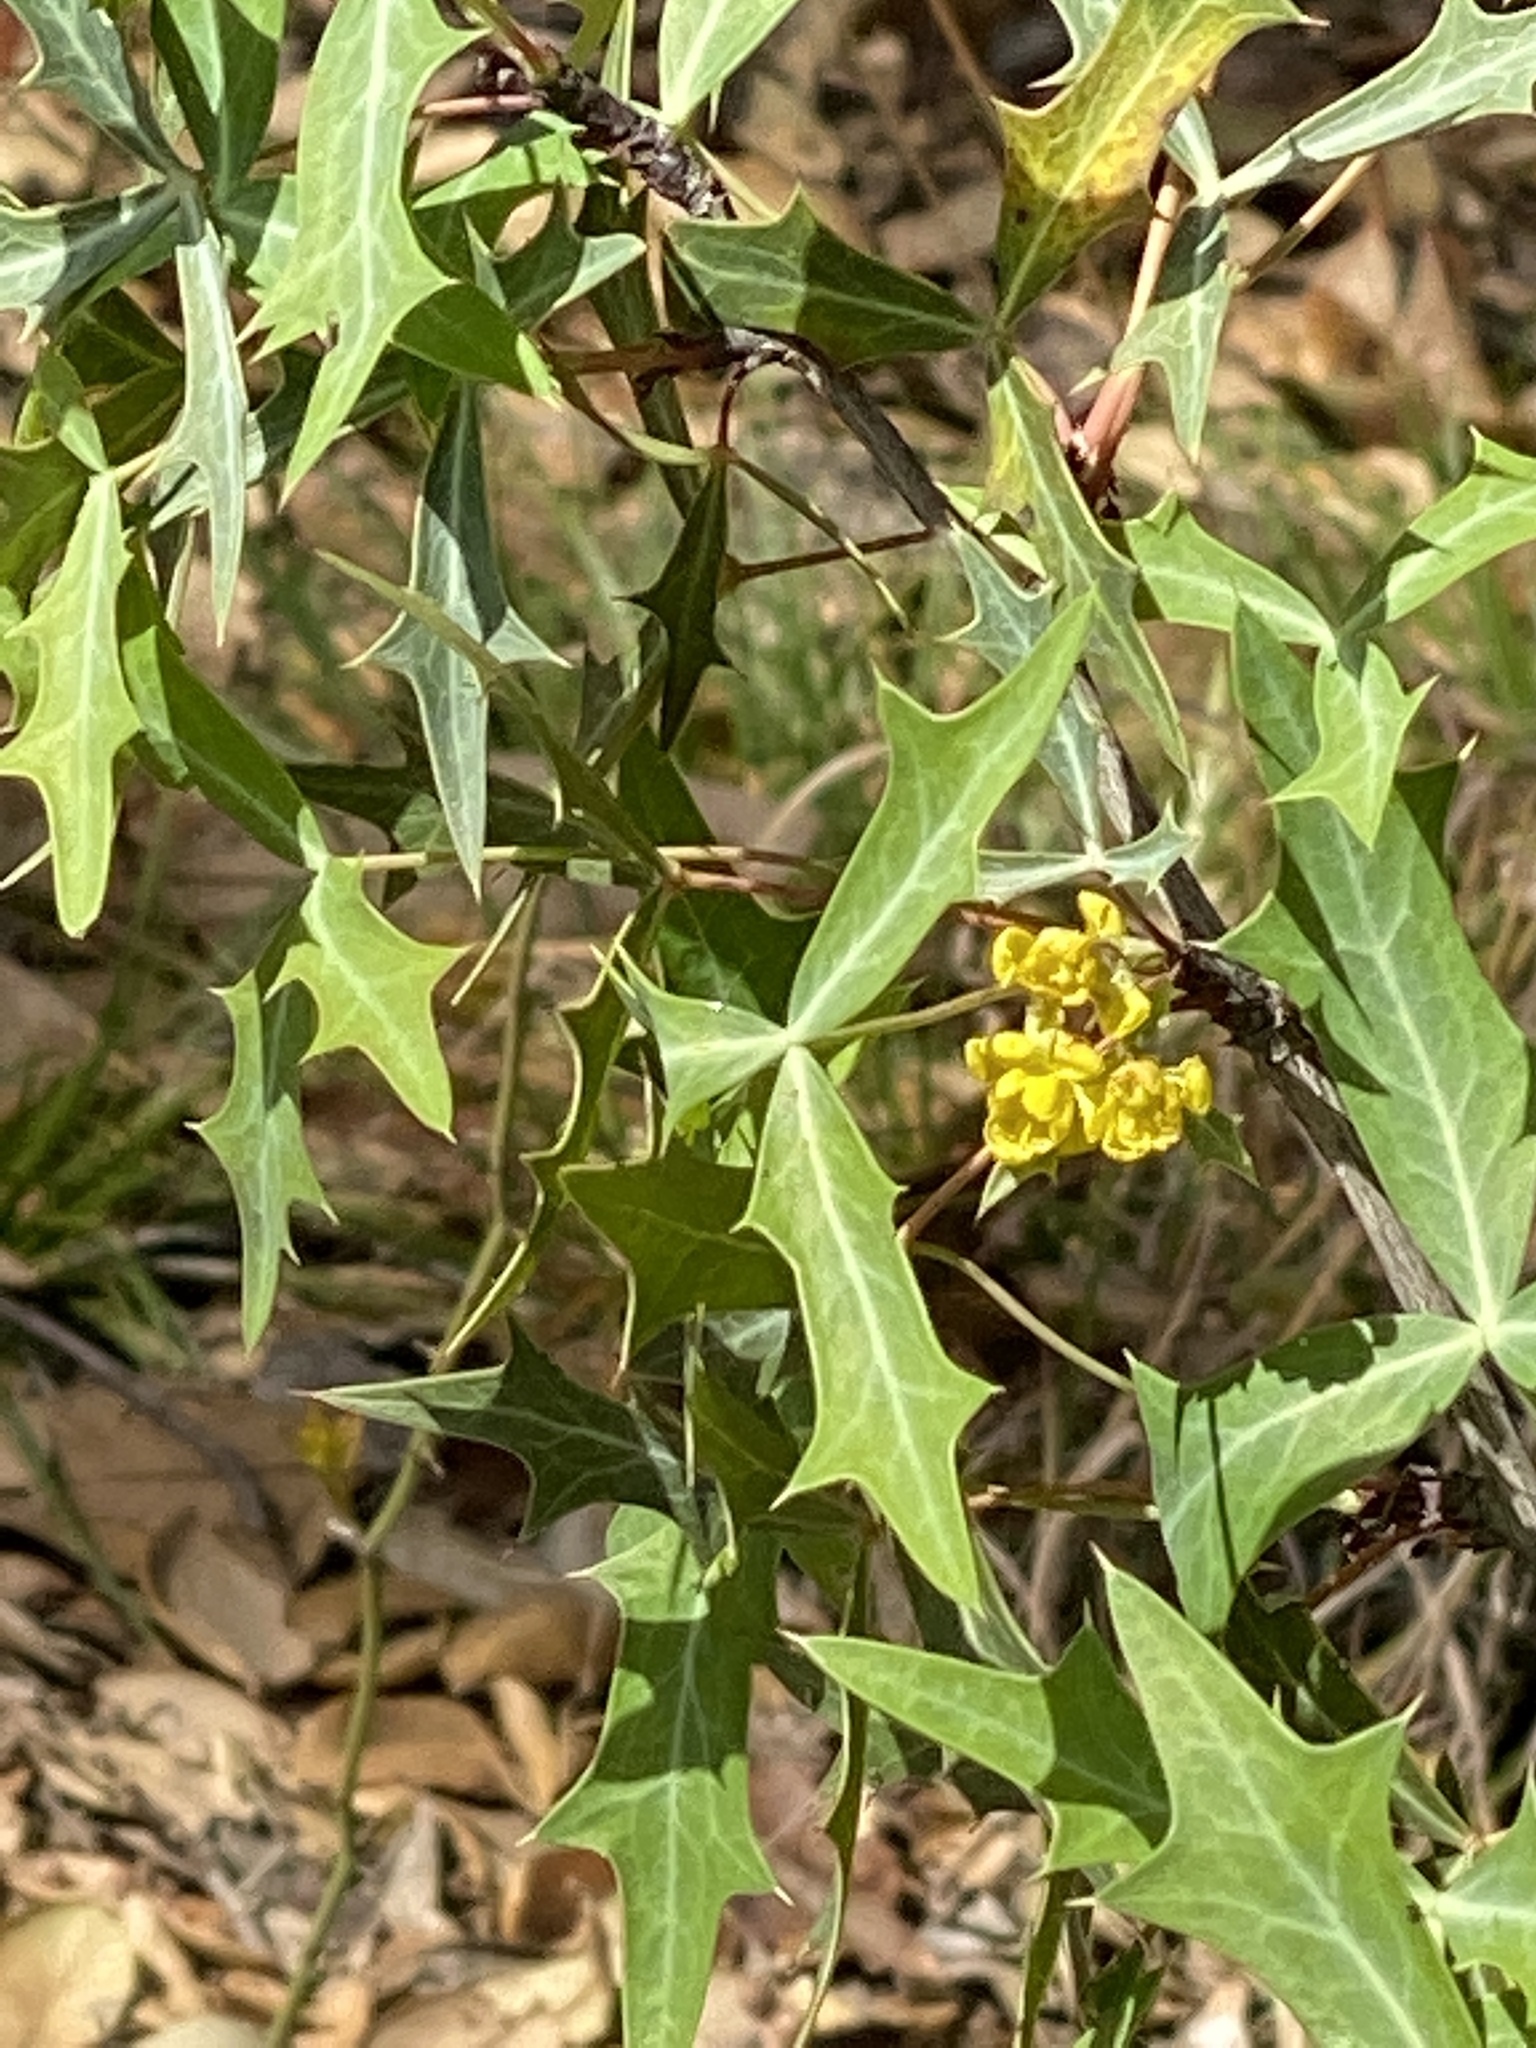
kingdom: Plantae
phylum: Tracheophyta
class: Magnoliopsida
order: Ranunculales
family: Berberidaceae
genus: Alloberberis
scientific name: Alloberberis trifoliolata
